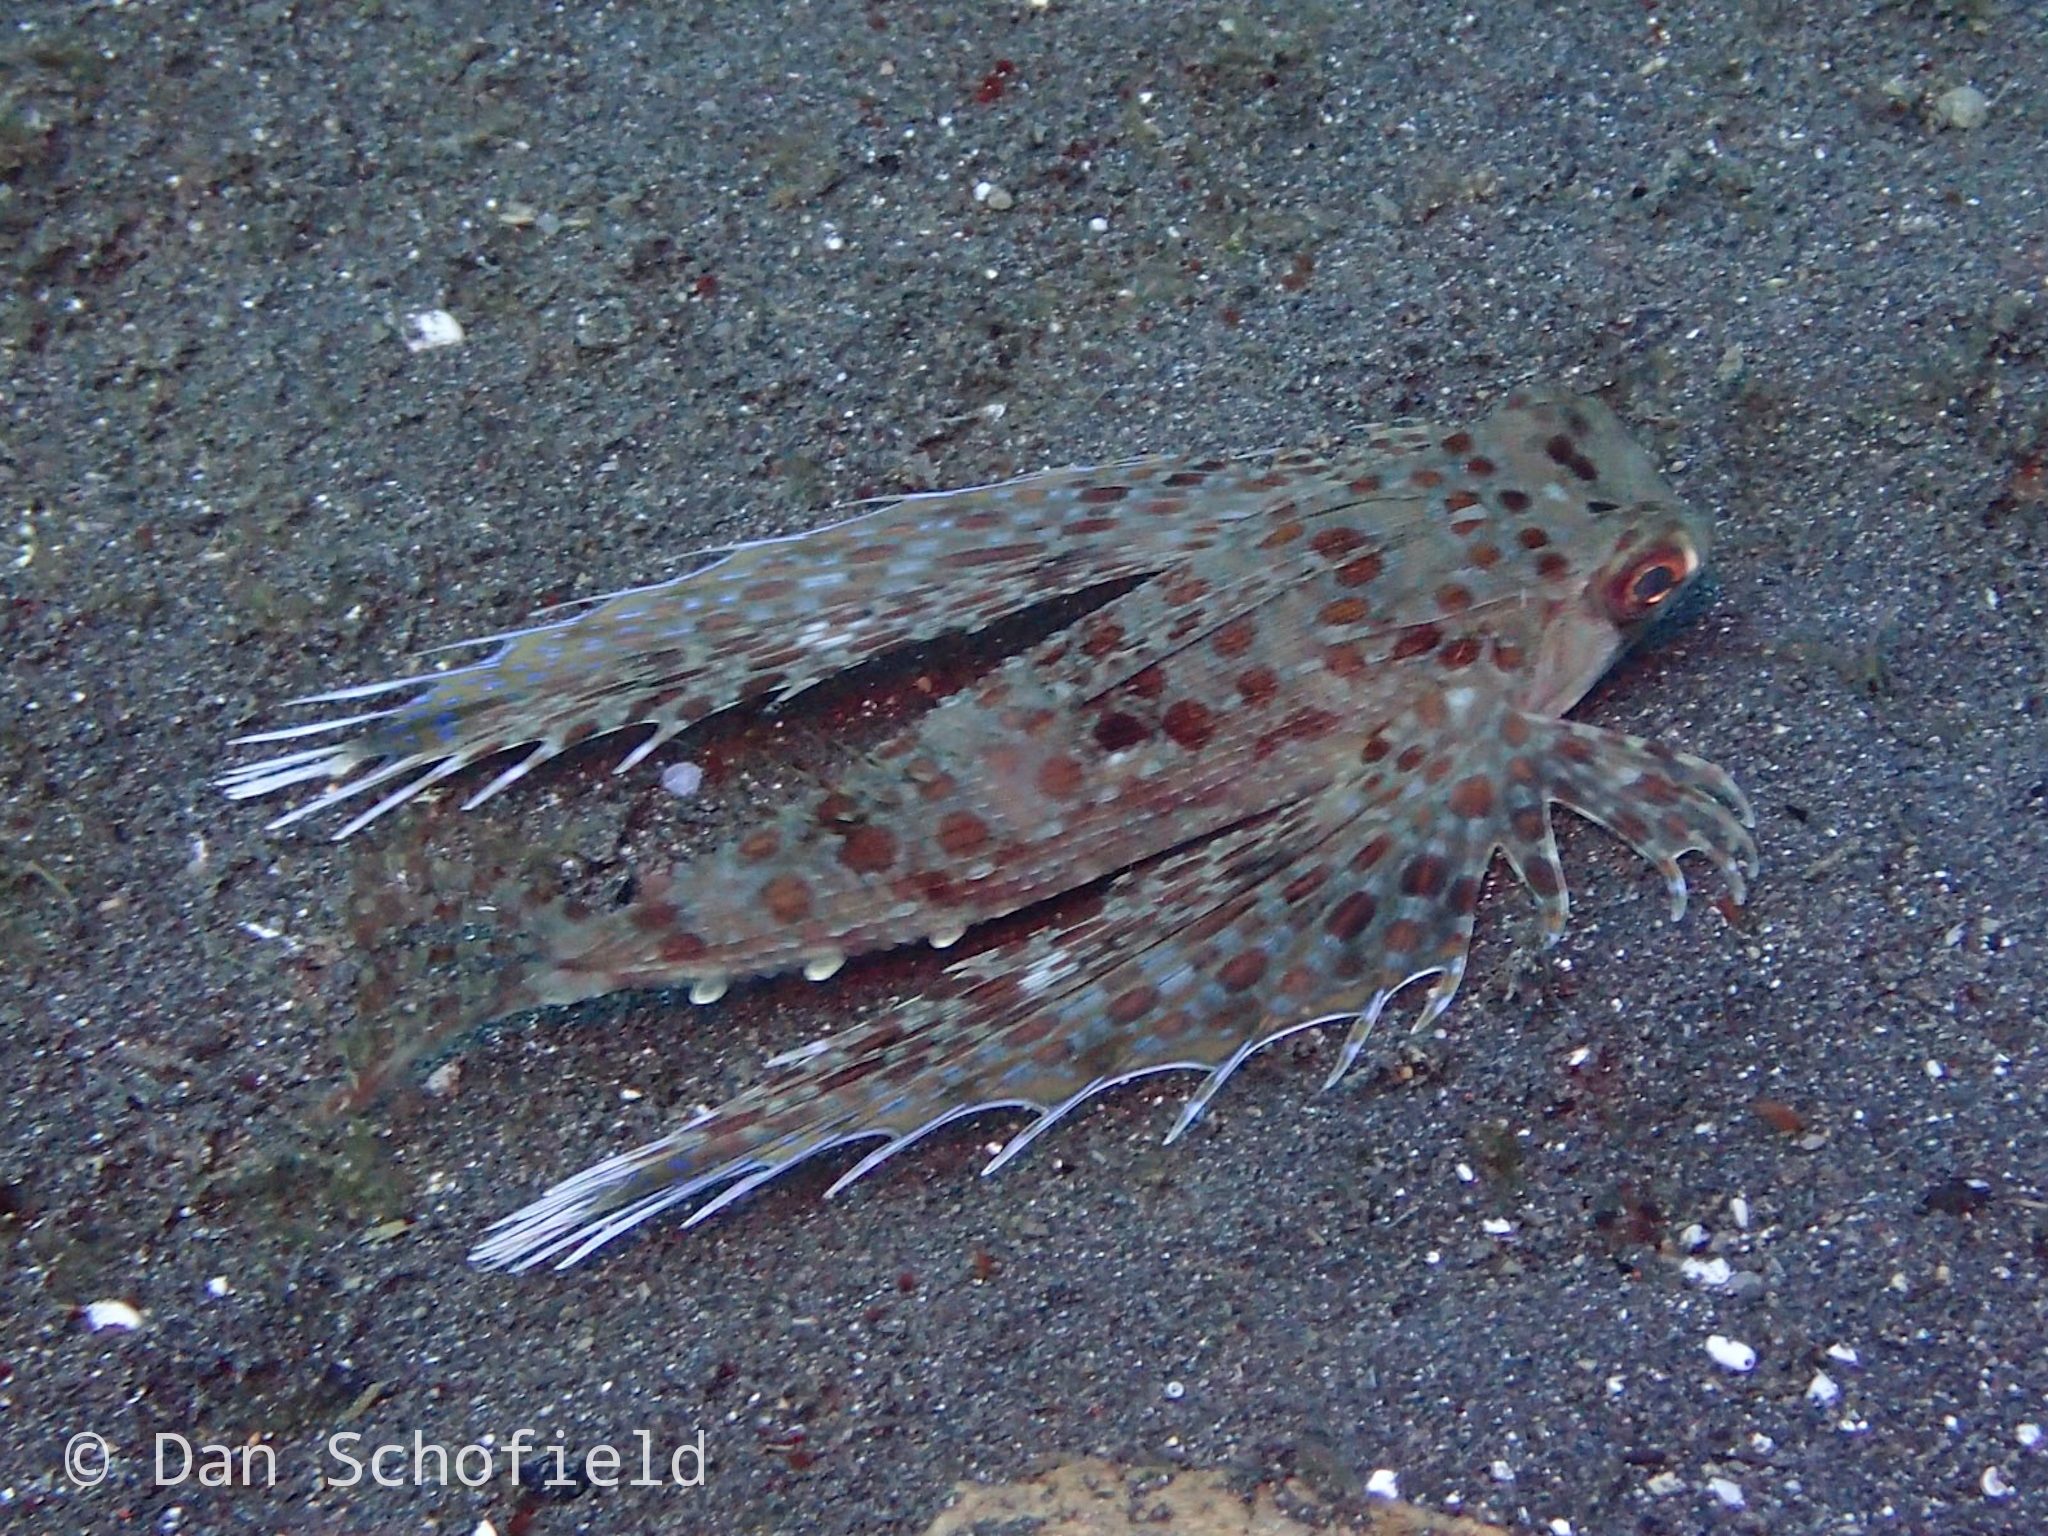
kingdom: Animalia
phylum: Chordata
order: Scorpaeniformes
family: Dactylopteridae
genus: Dactyloptena
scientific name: Dactyloptena orientalis
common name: Flying gurnard
